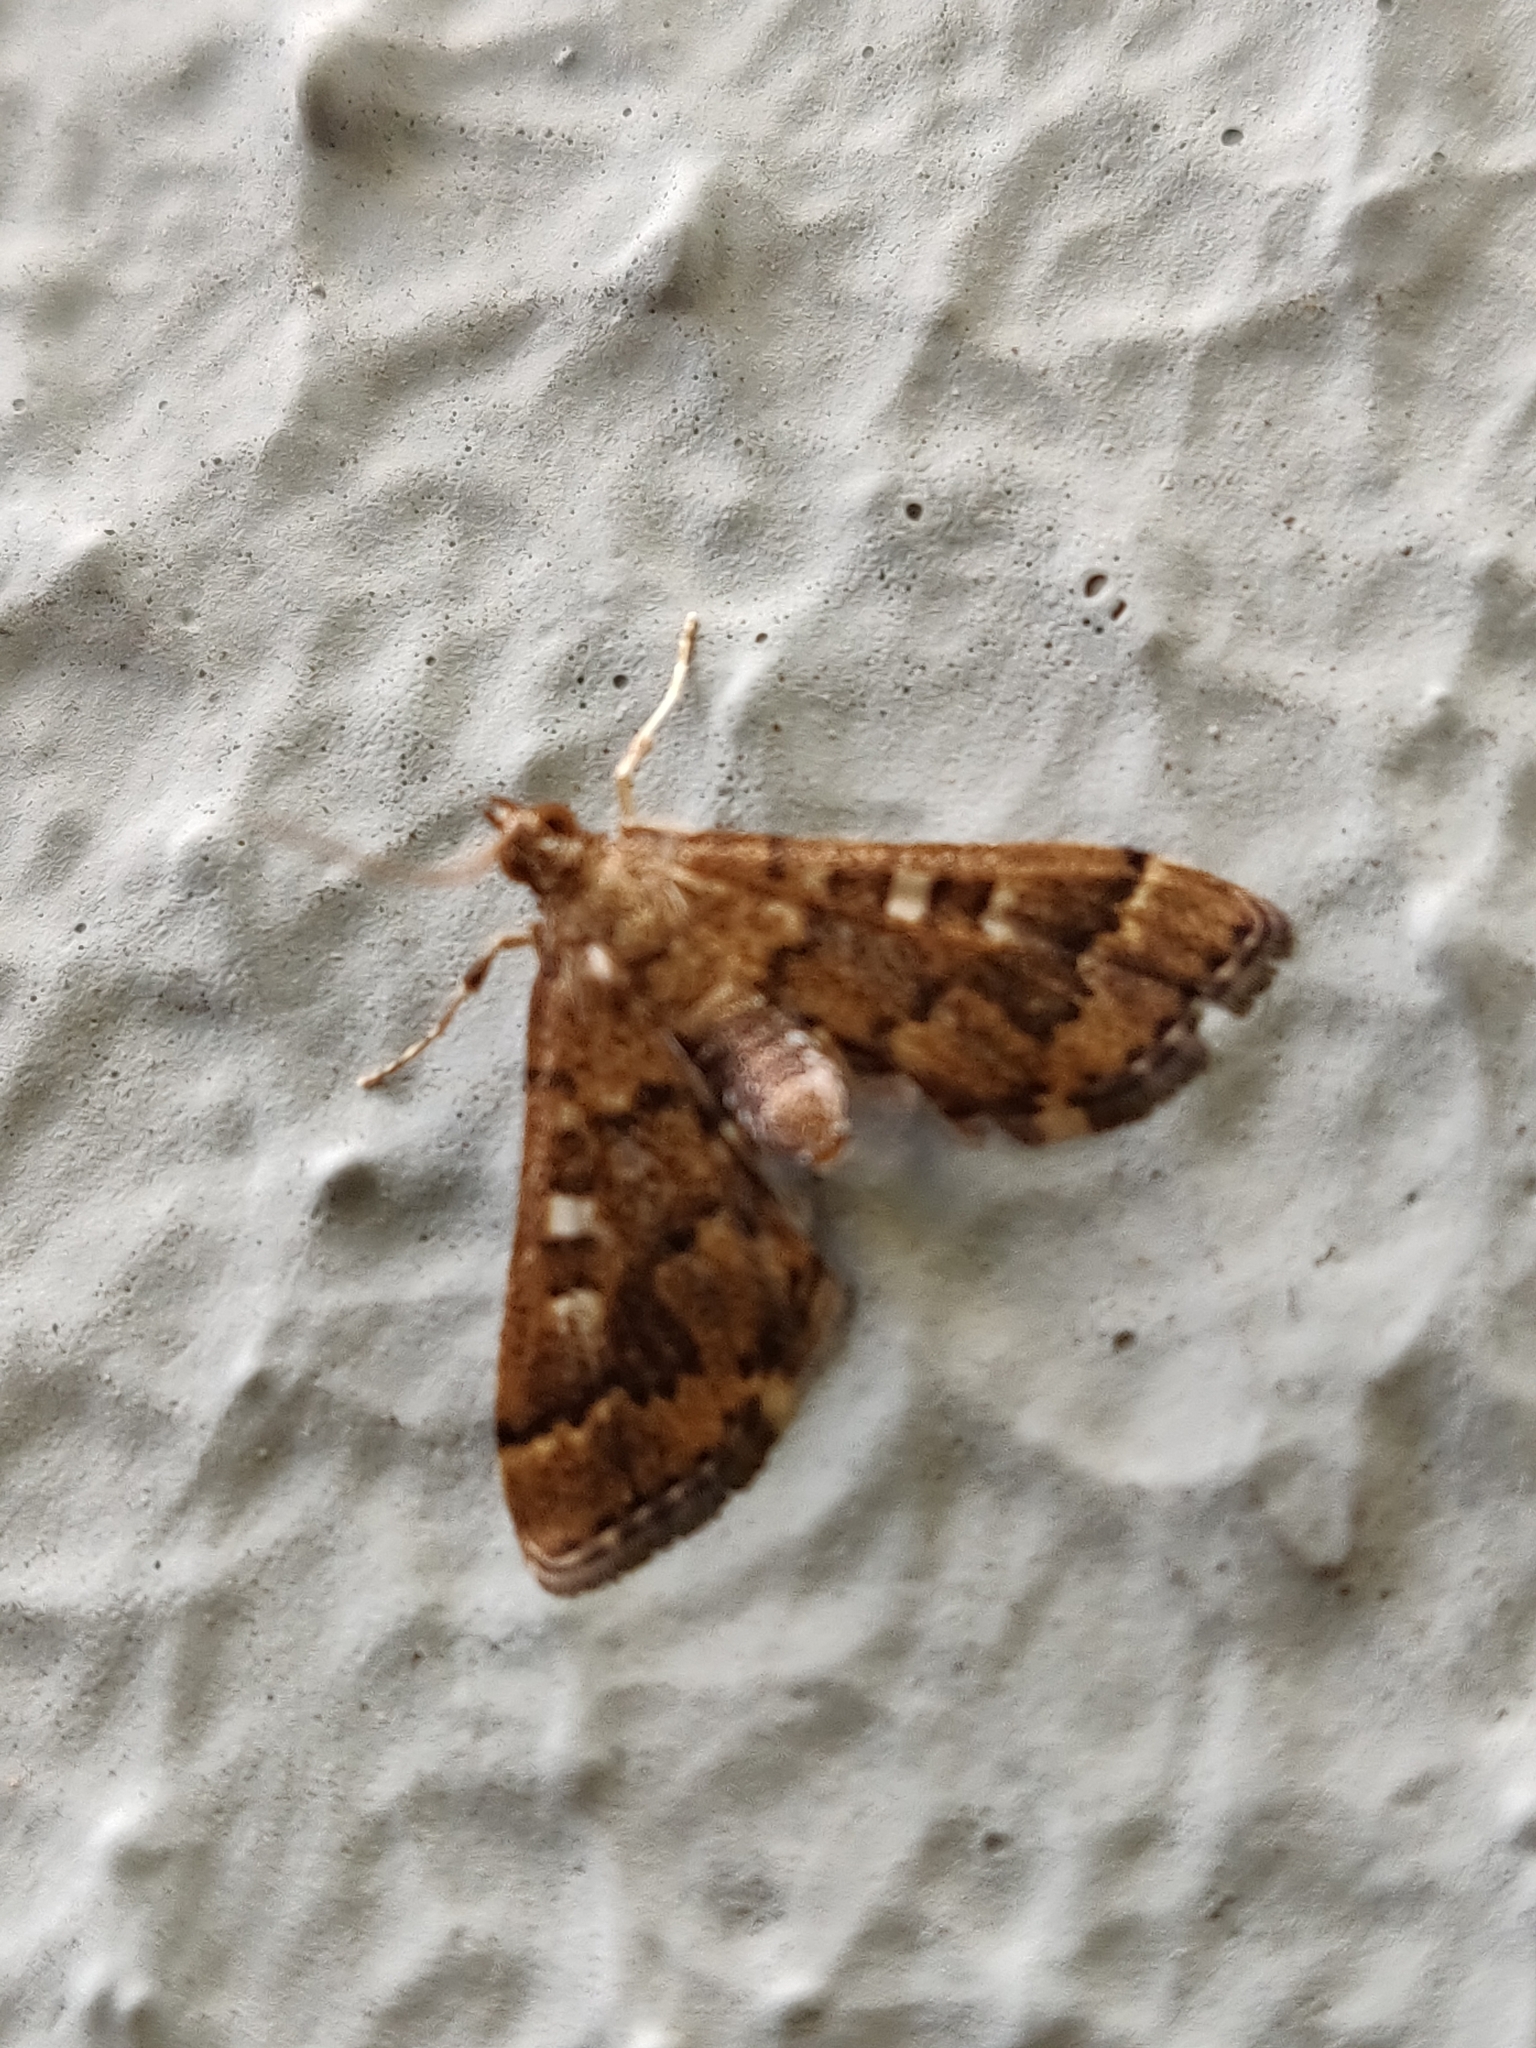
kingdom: Animalia
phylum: Arthropoda
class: Insecta
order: Lepidoptera
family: Crambidae
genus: Nacoleia
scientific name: Nacoleia rhoeoalis
